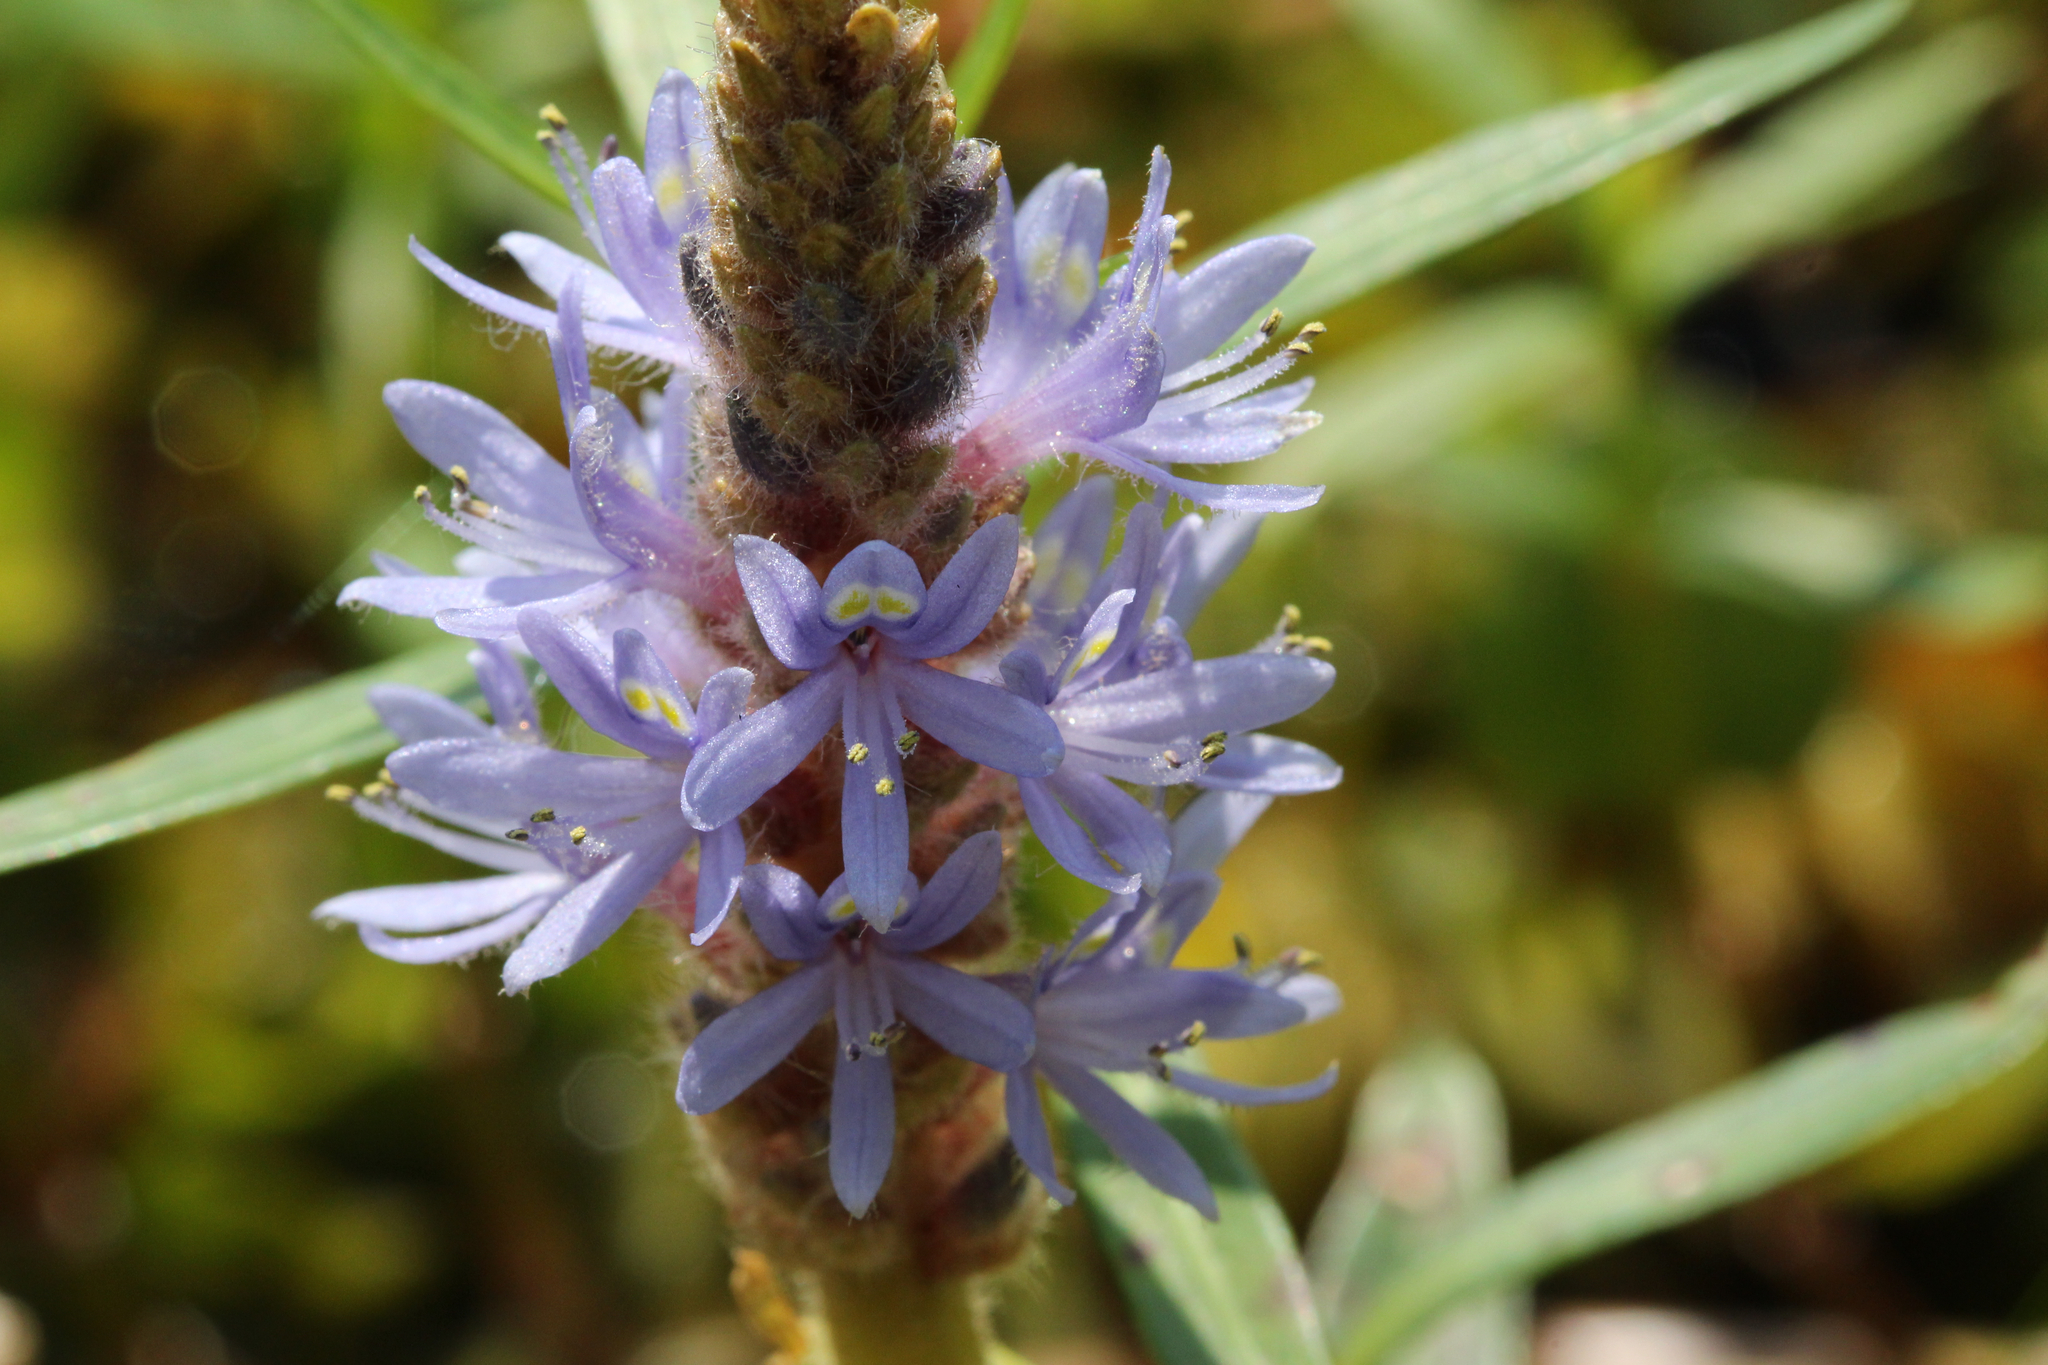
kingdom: Plantae
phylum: Tracheophyta
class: Liliopsida
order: Commelinales
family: Pontederiaceae
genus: Pontederia
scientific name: Pontederia cordata
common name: Pickerelweed
